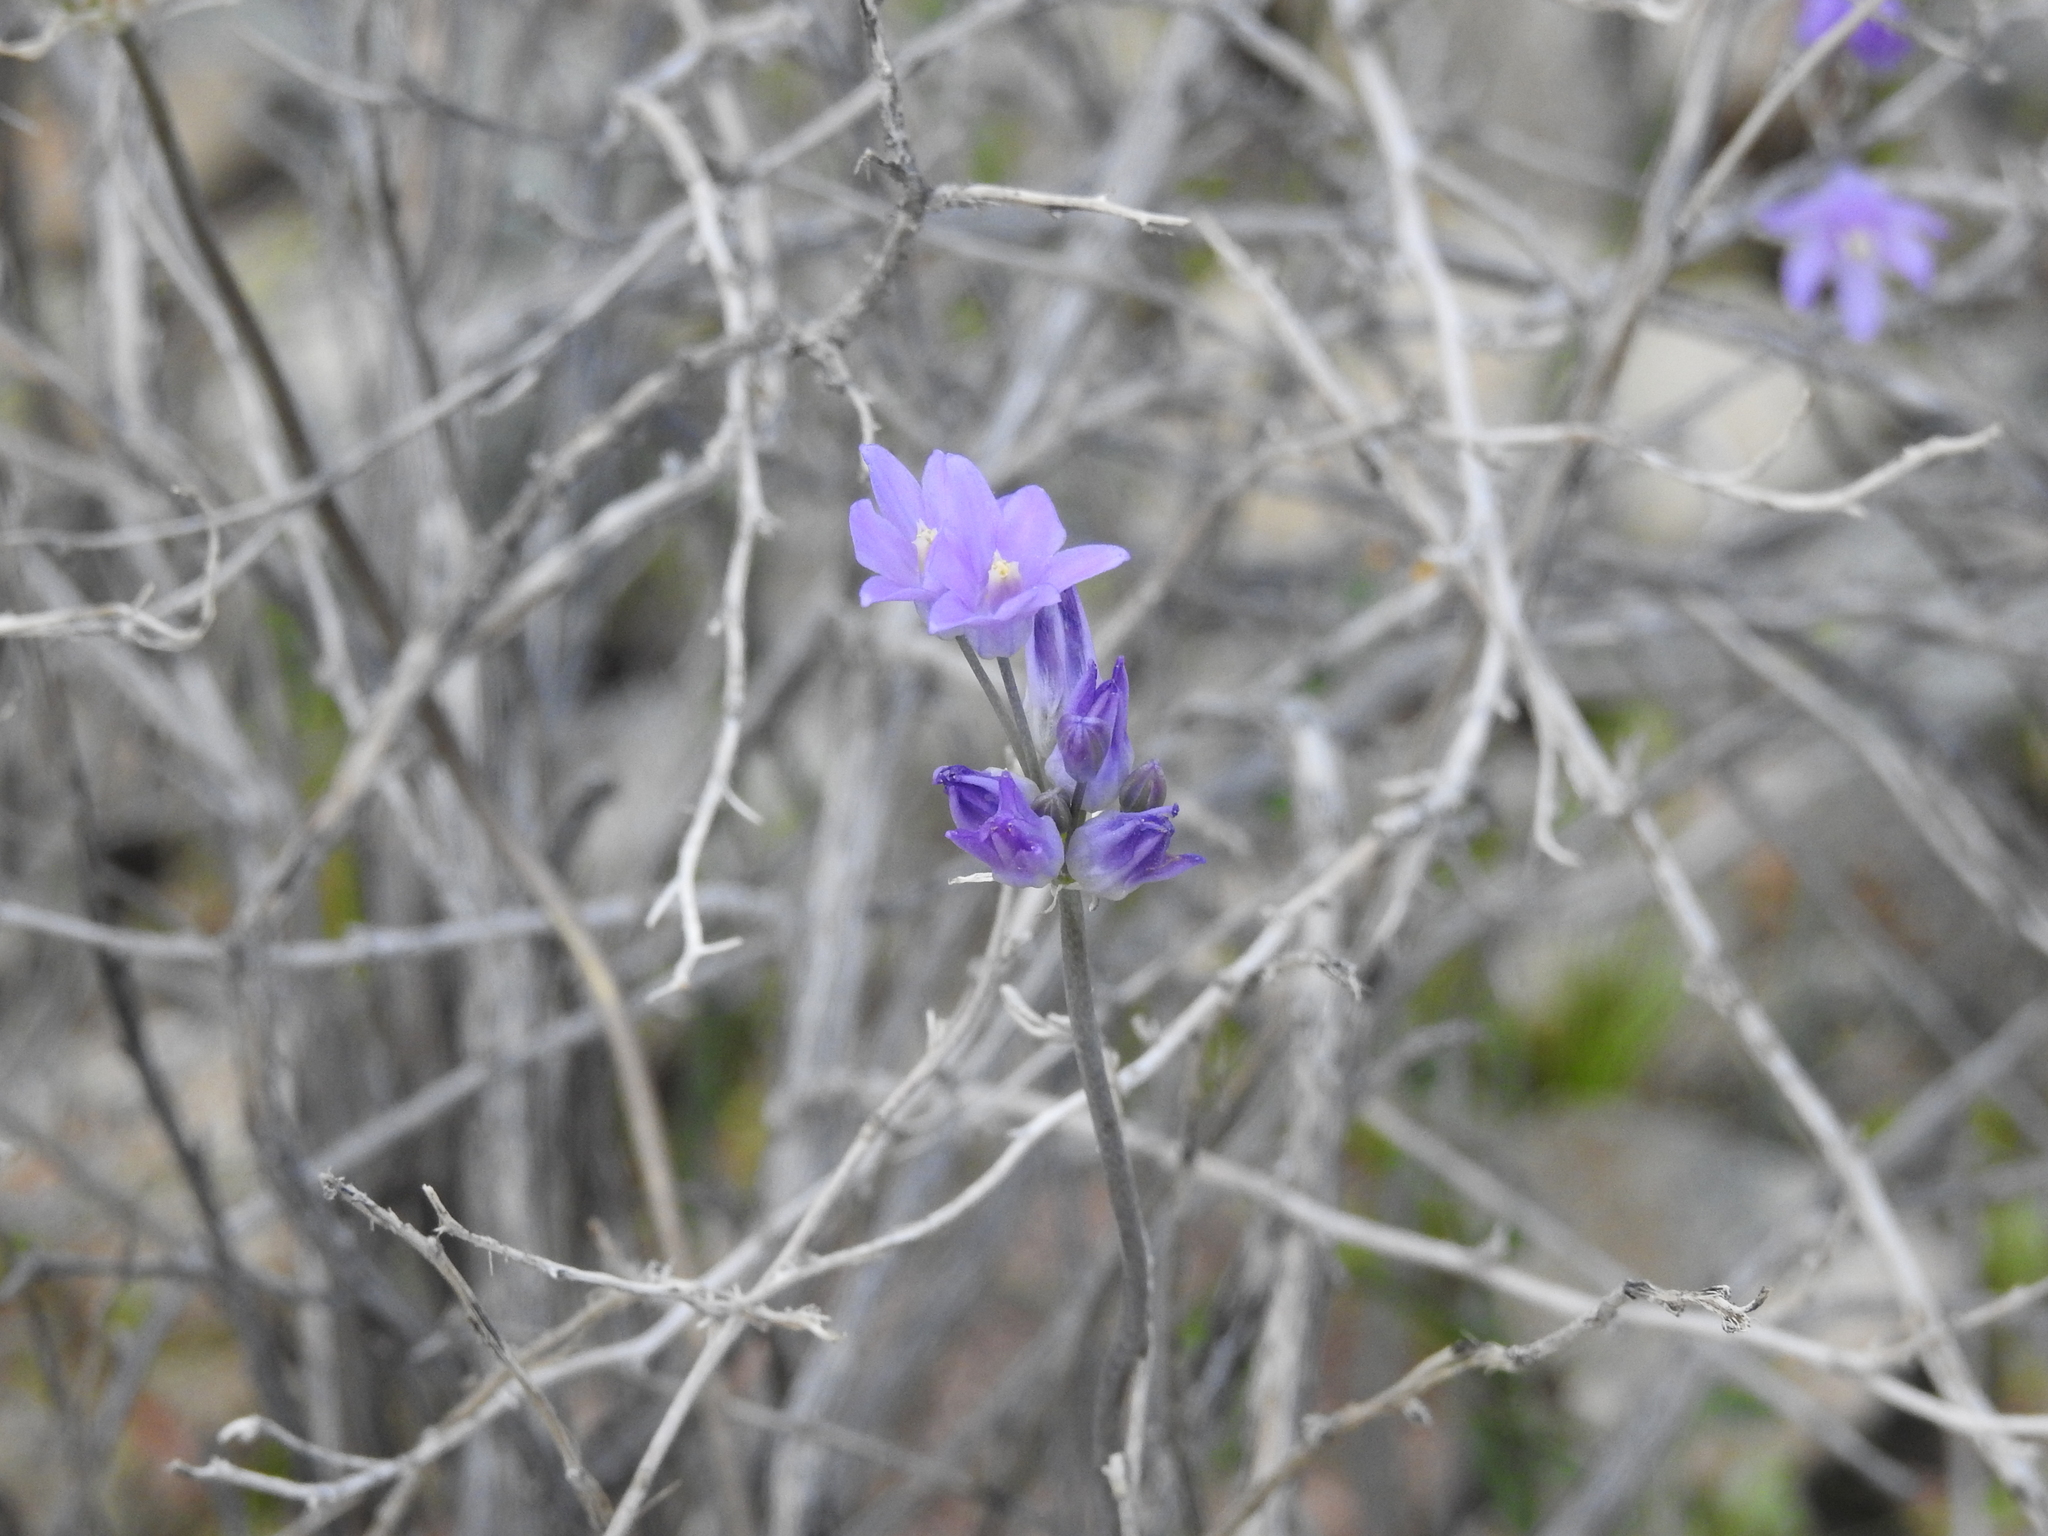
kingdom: Plantae
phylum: Tracheophyta
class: Liliopsida
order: Asparagales
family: Asparagaceae
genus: Dipterostemon
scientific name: Dipterostemon capitatus
